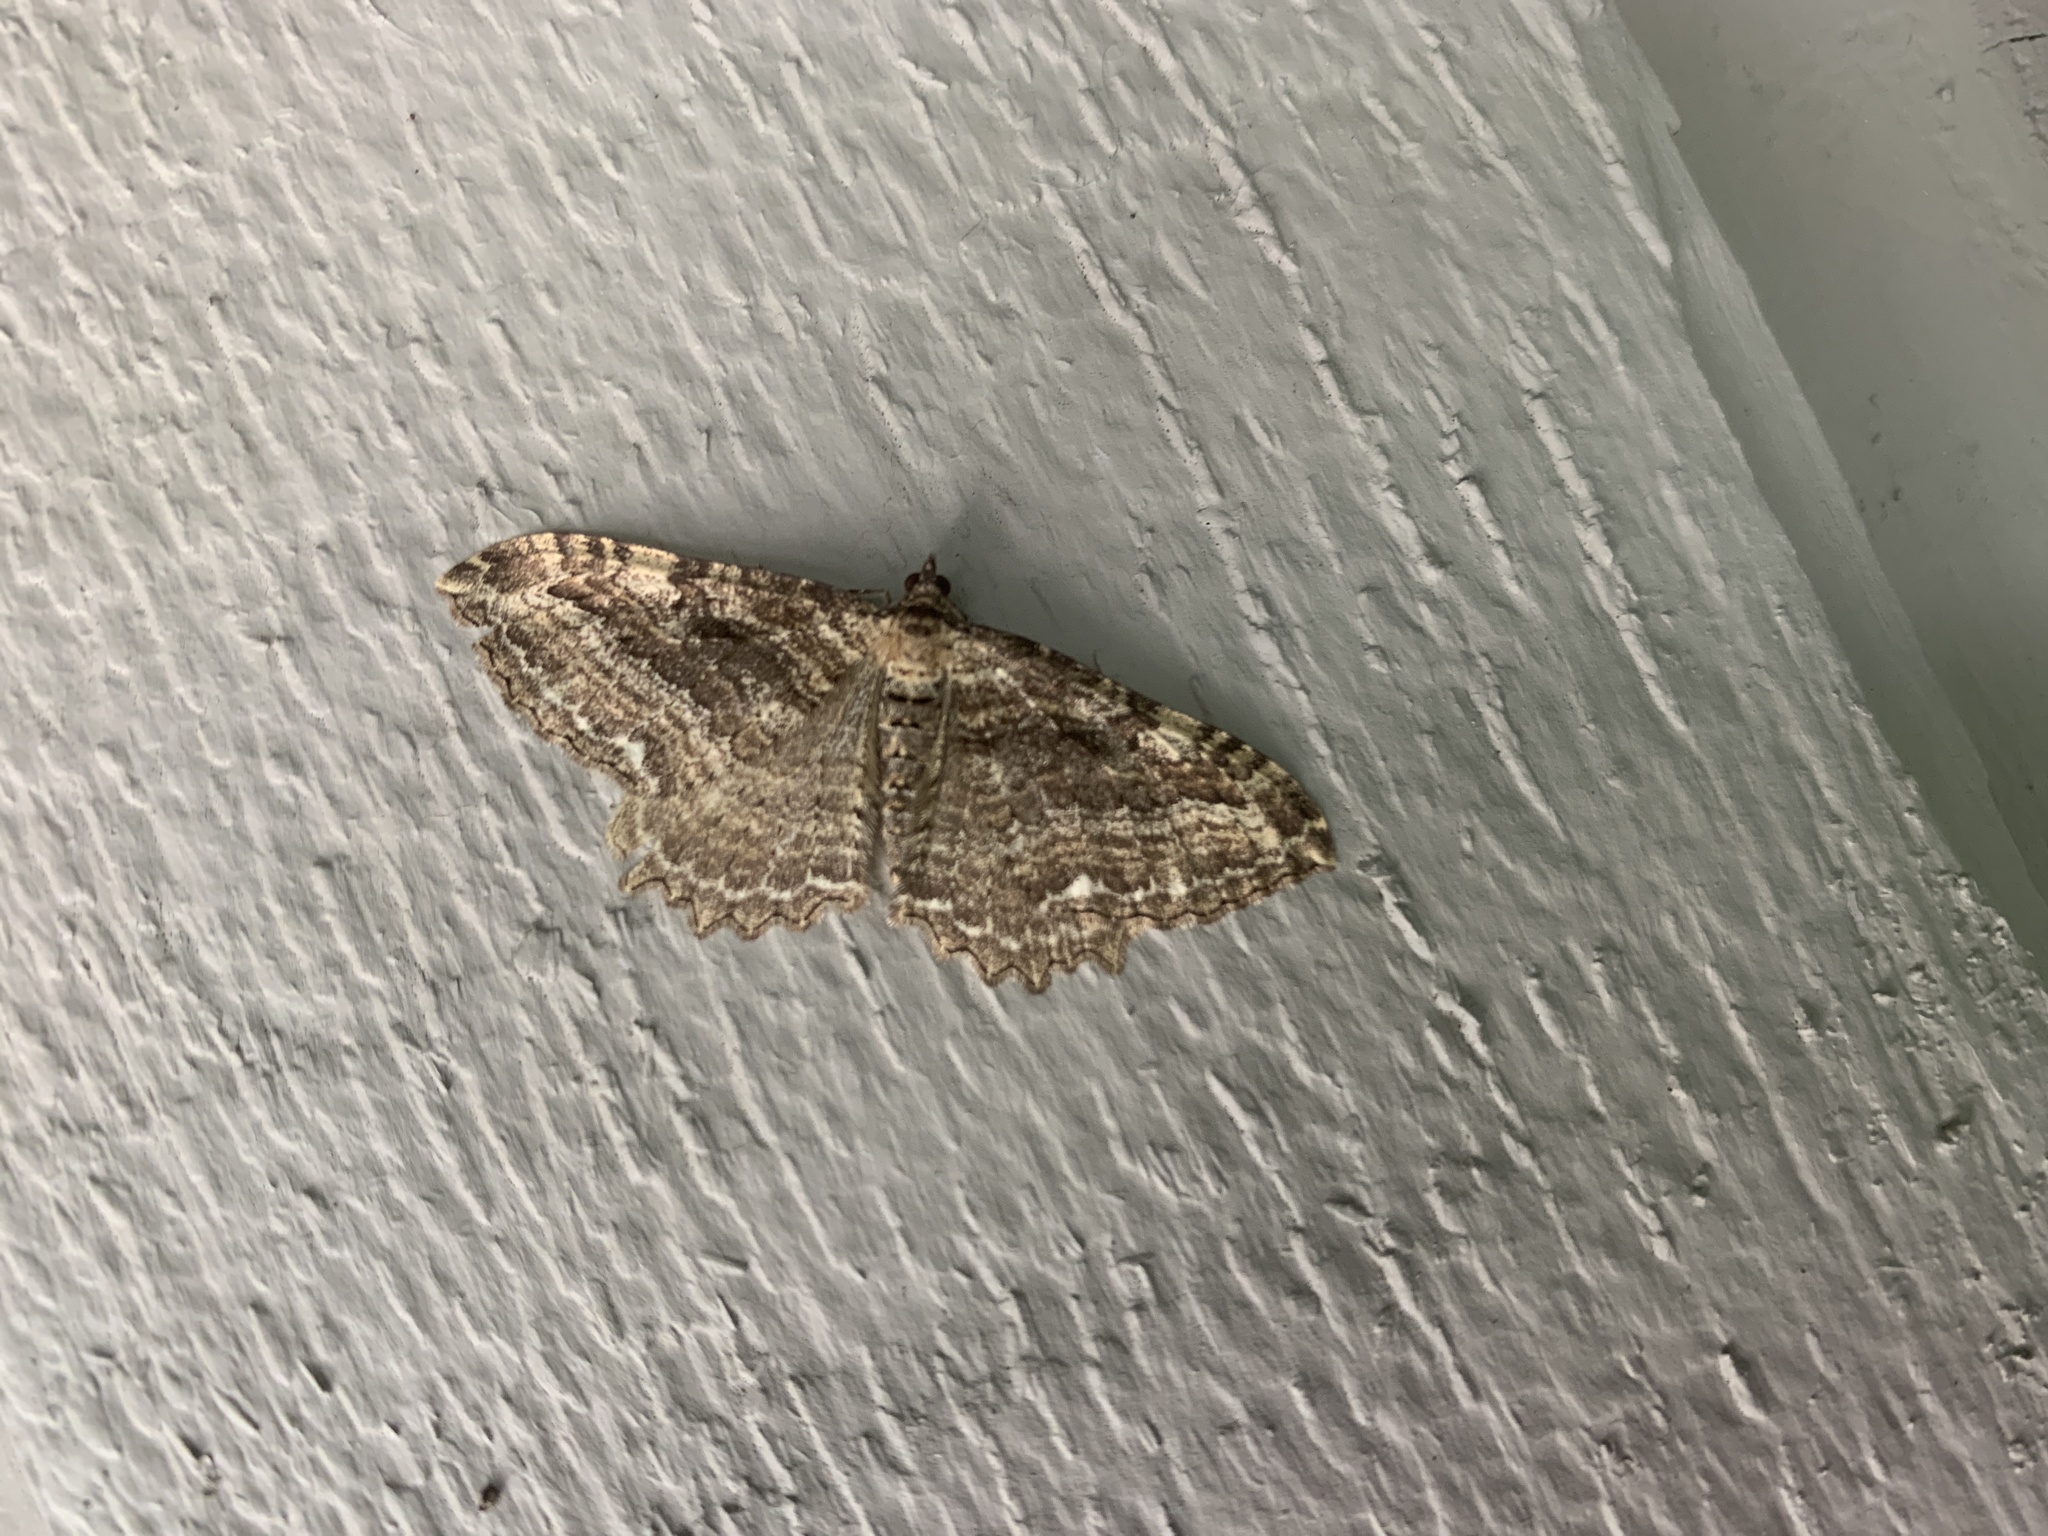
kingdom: Animalia
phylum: Arthropoda
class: Insecta
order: Lepidoptera
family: Geometridae
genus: Rheumaptera
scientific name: Rheumaptera
